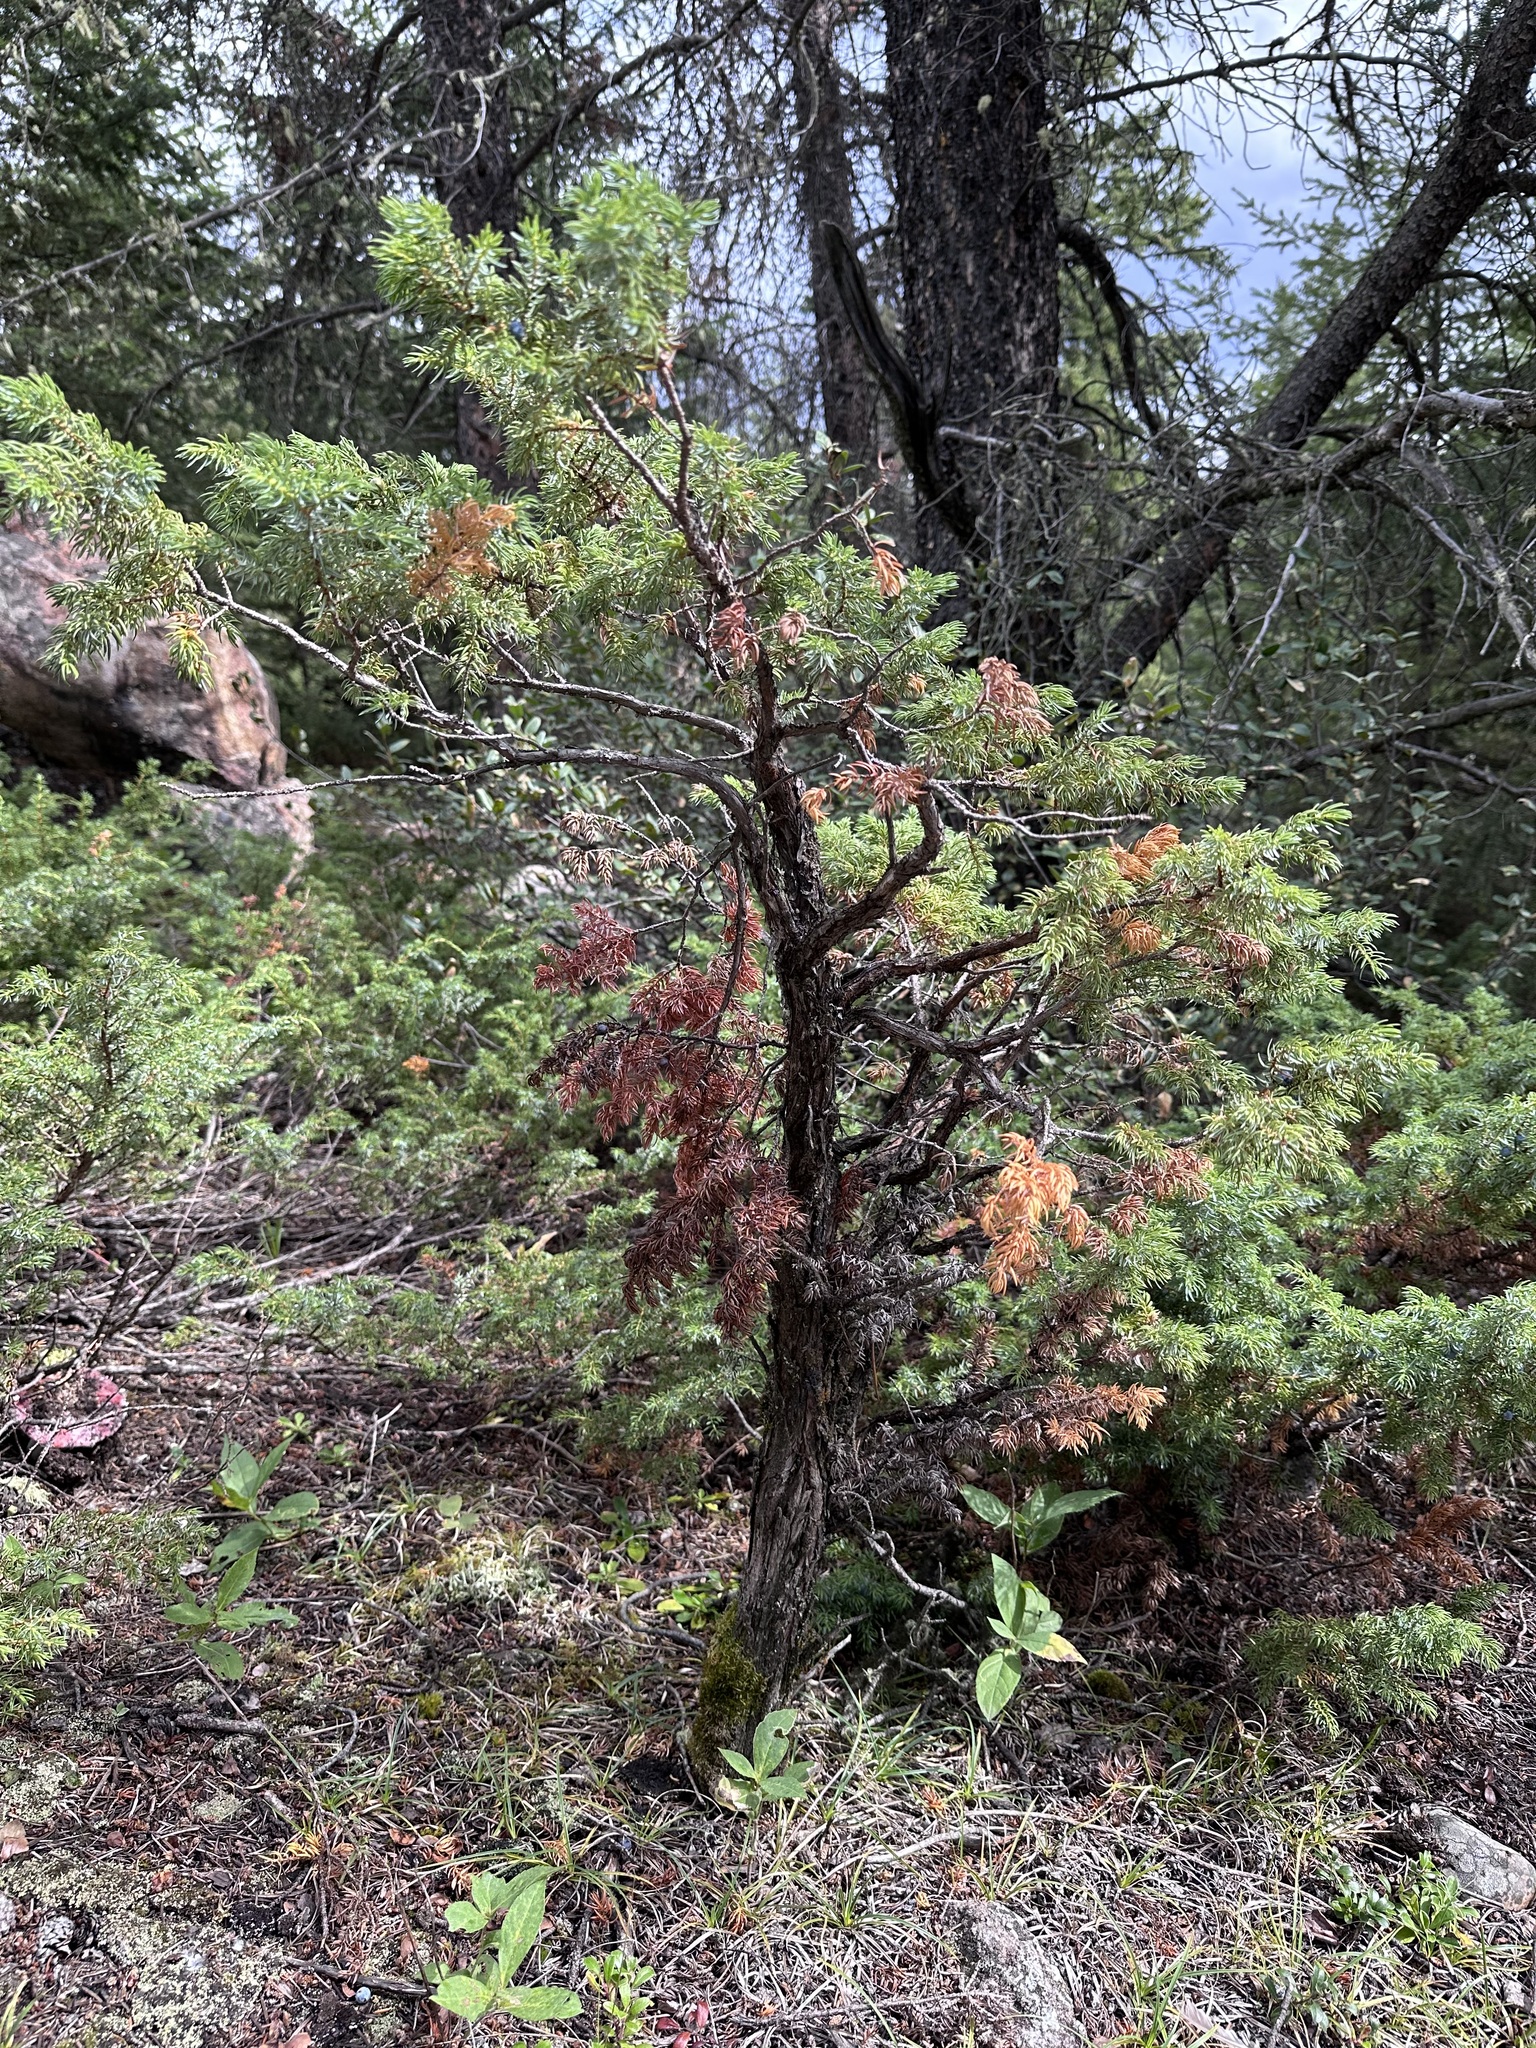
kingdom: Plantae
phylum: Tracheophyta
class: Pinopsida
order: Pinales
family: Cupressaceae
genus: Juniperus
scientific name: Juniperus communis
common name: Common juniper
